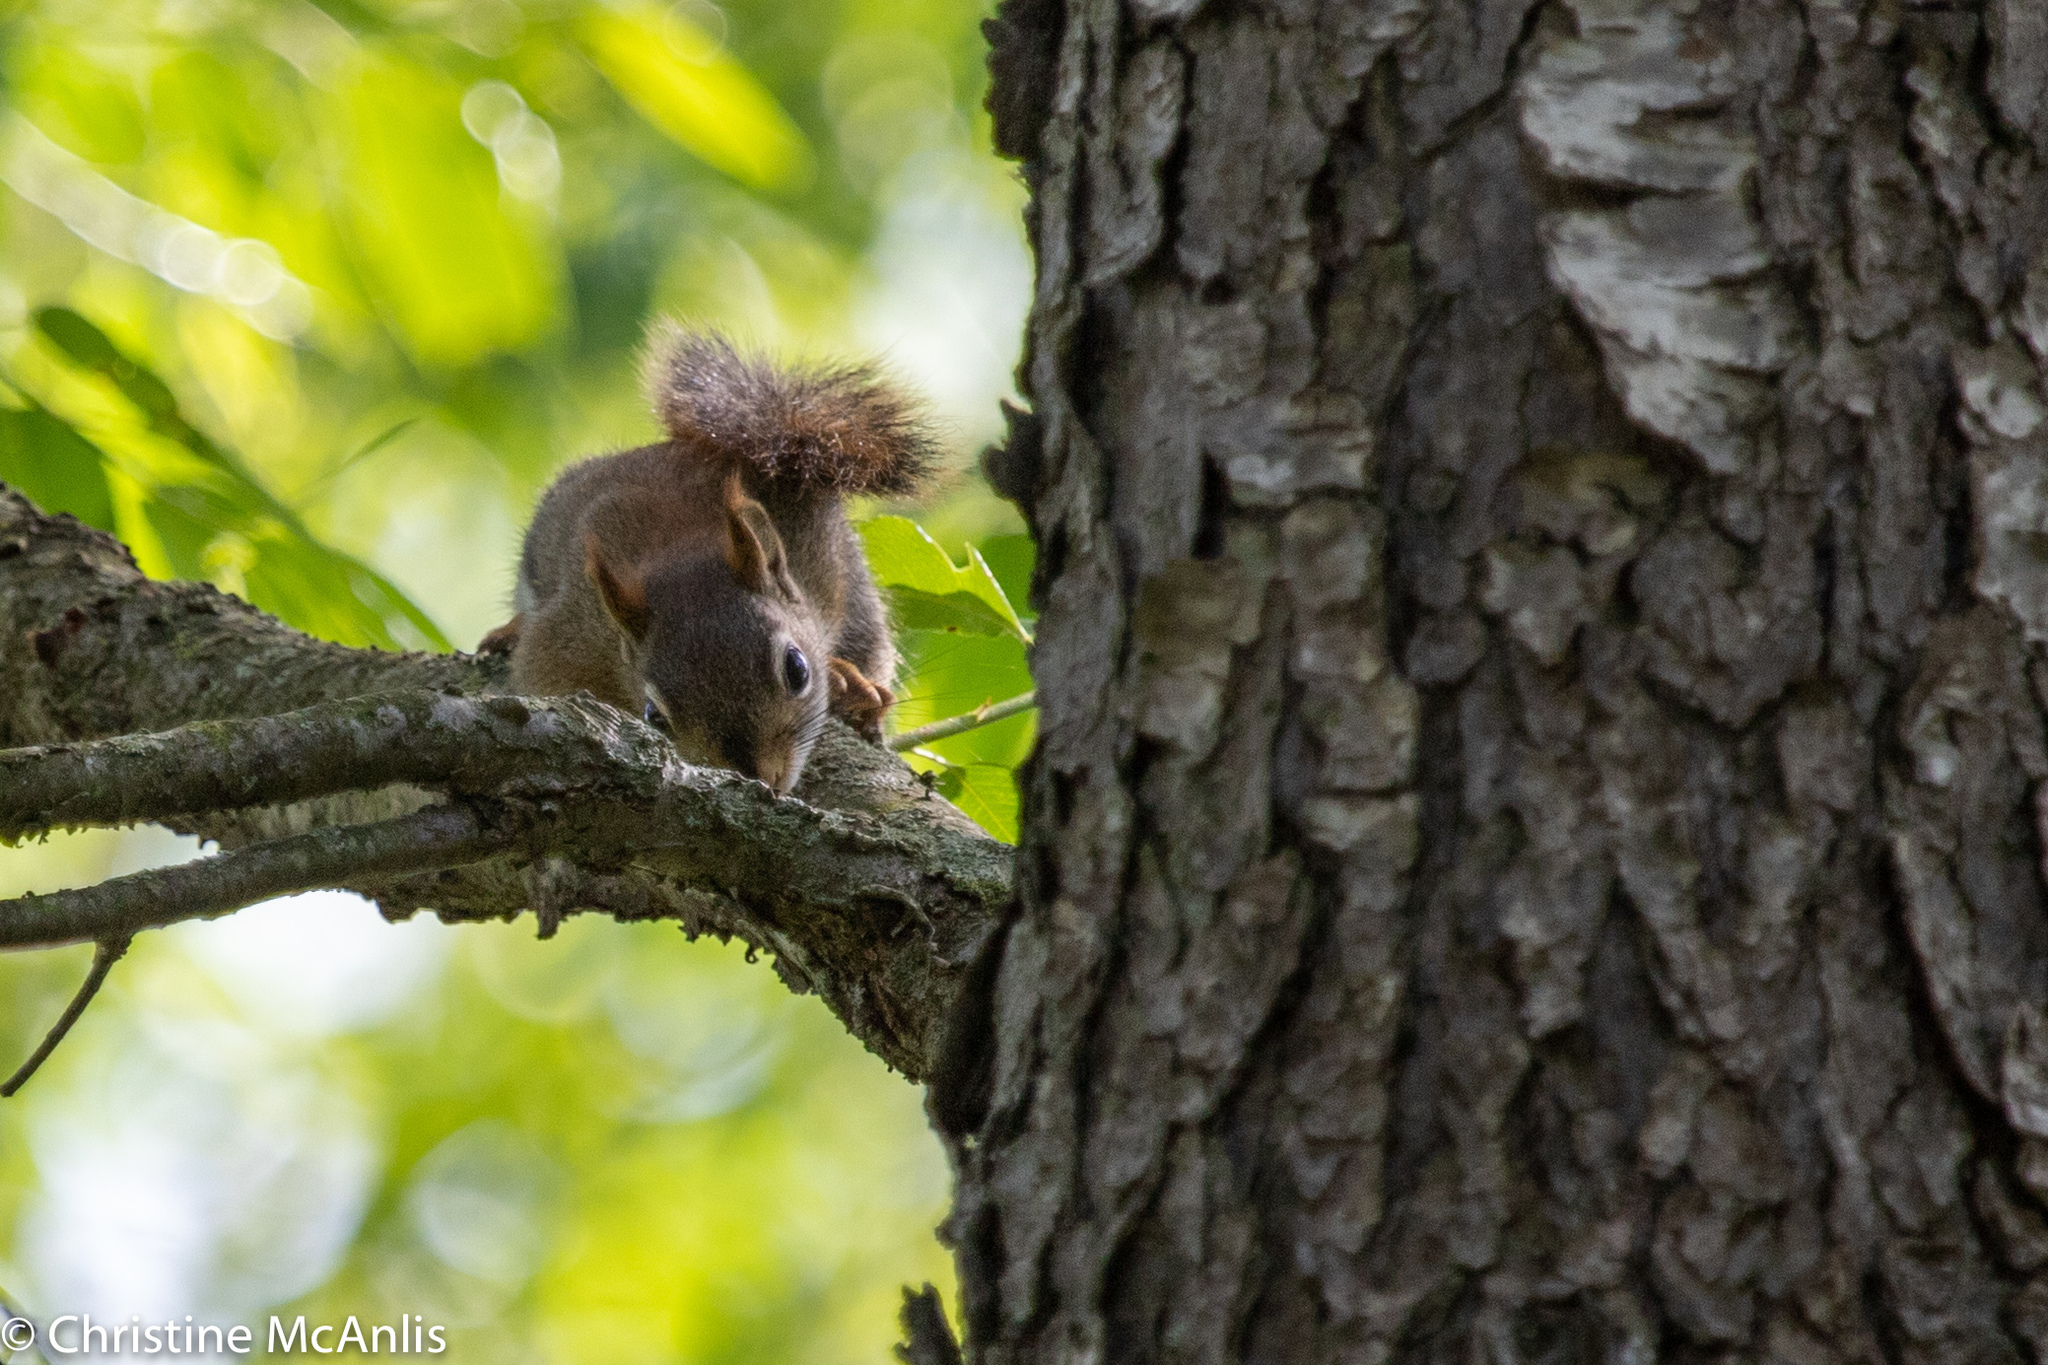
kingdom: Animalia
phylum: Chordata
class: Mammalia
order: Rodentia
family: Sciuridae
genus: Tamiasciurus
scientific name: Tamiasciurus hudsonicus
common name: Red squirrel
